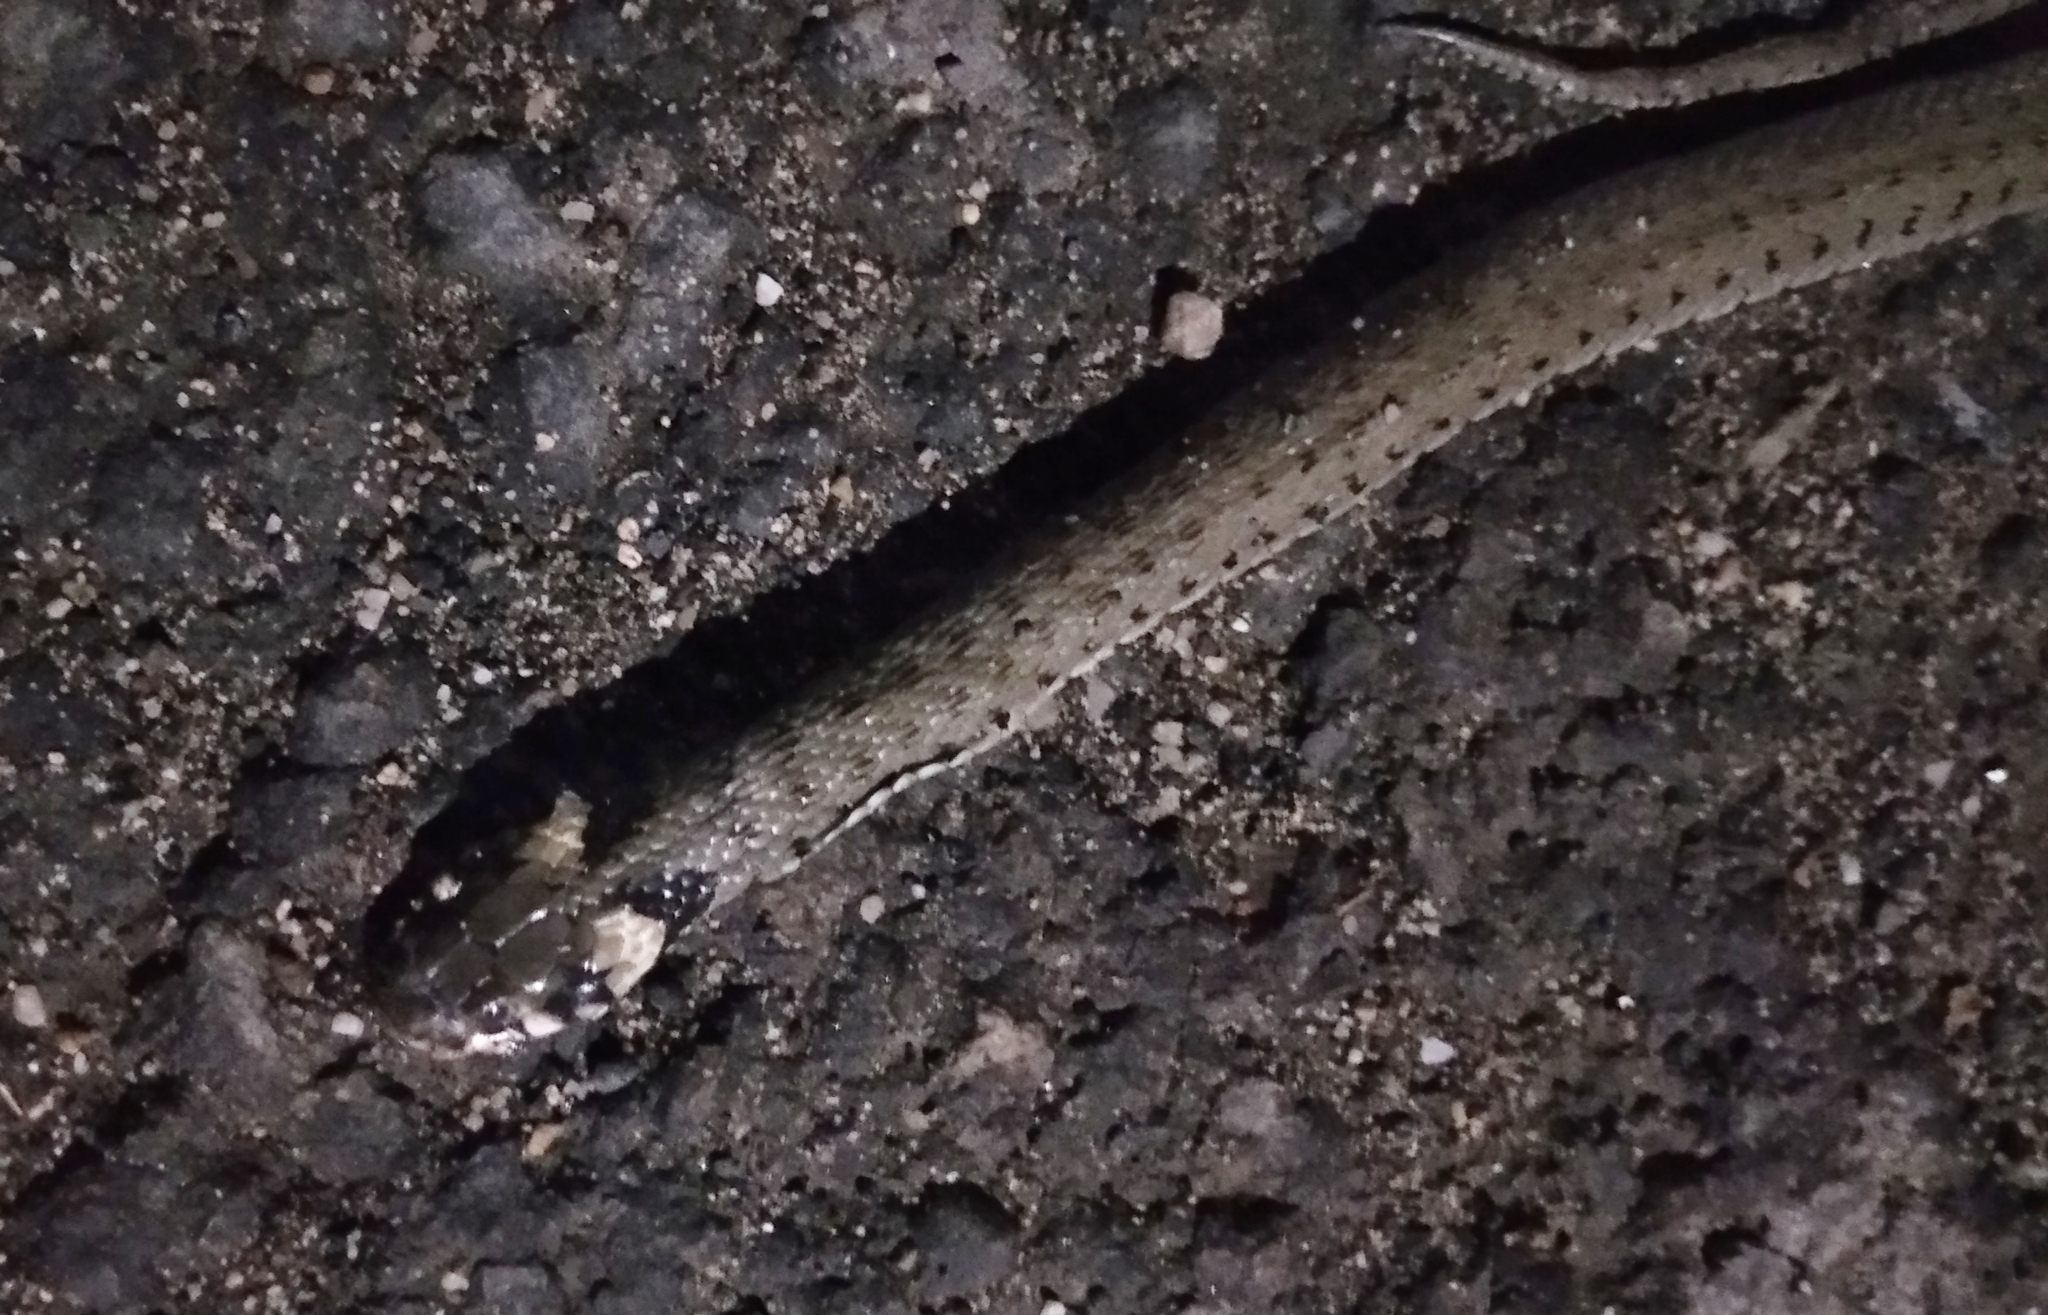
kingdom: Animalia
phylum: Chordata
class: Squamata
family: Colubridae
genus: Natrix
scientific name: Natrix natrix
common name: Grass snake
